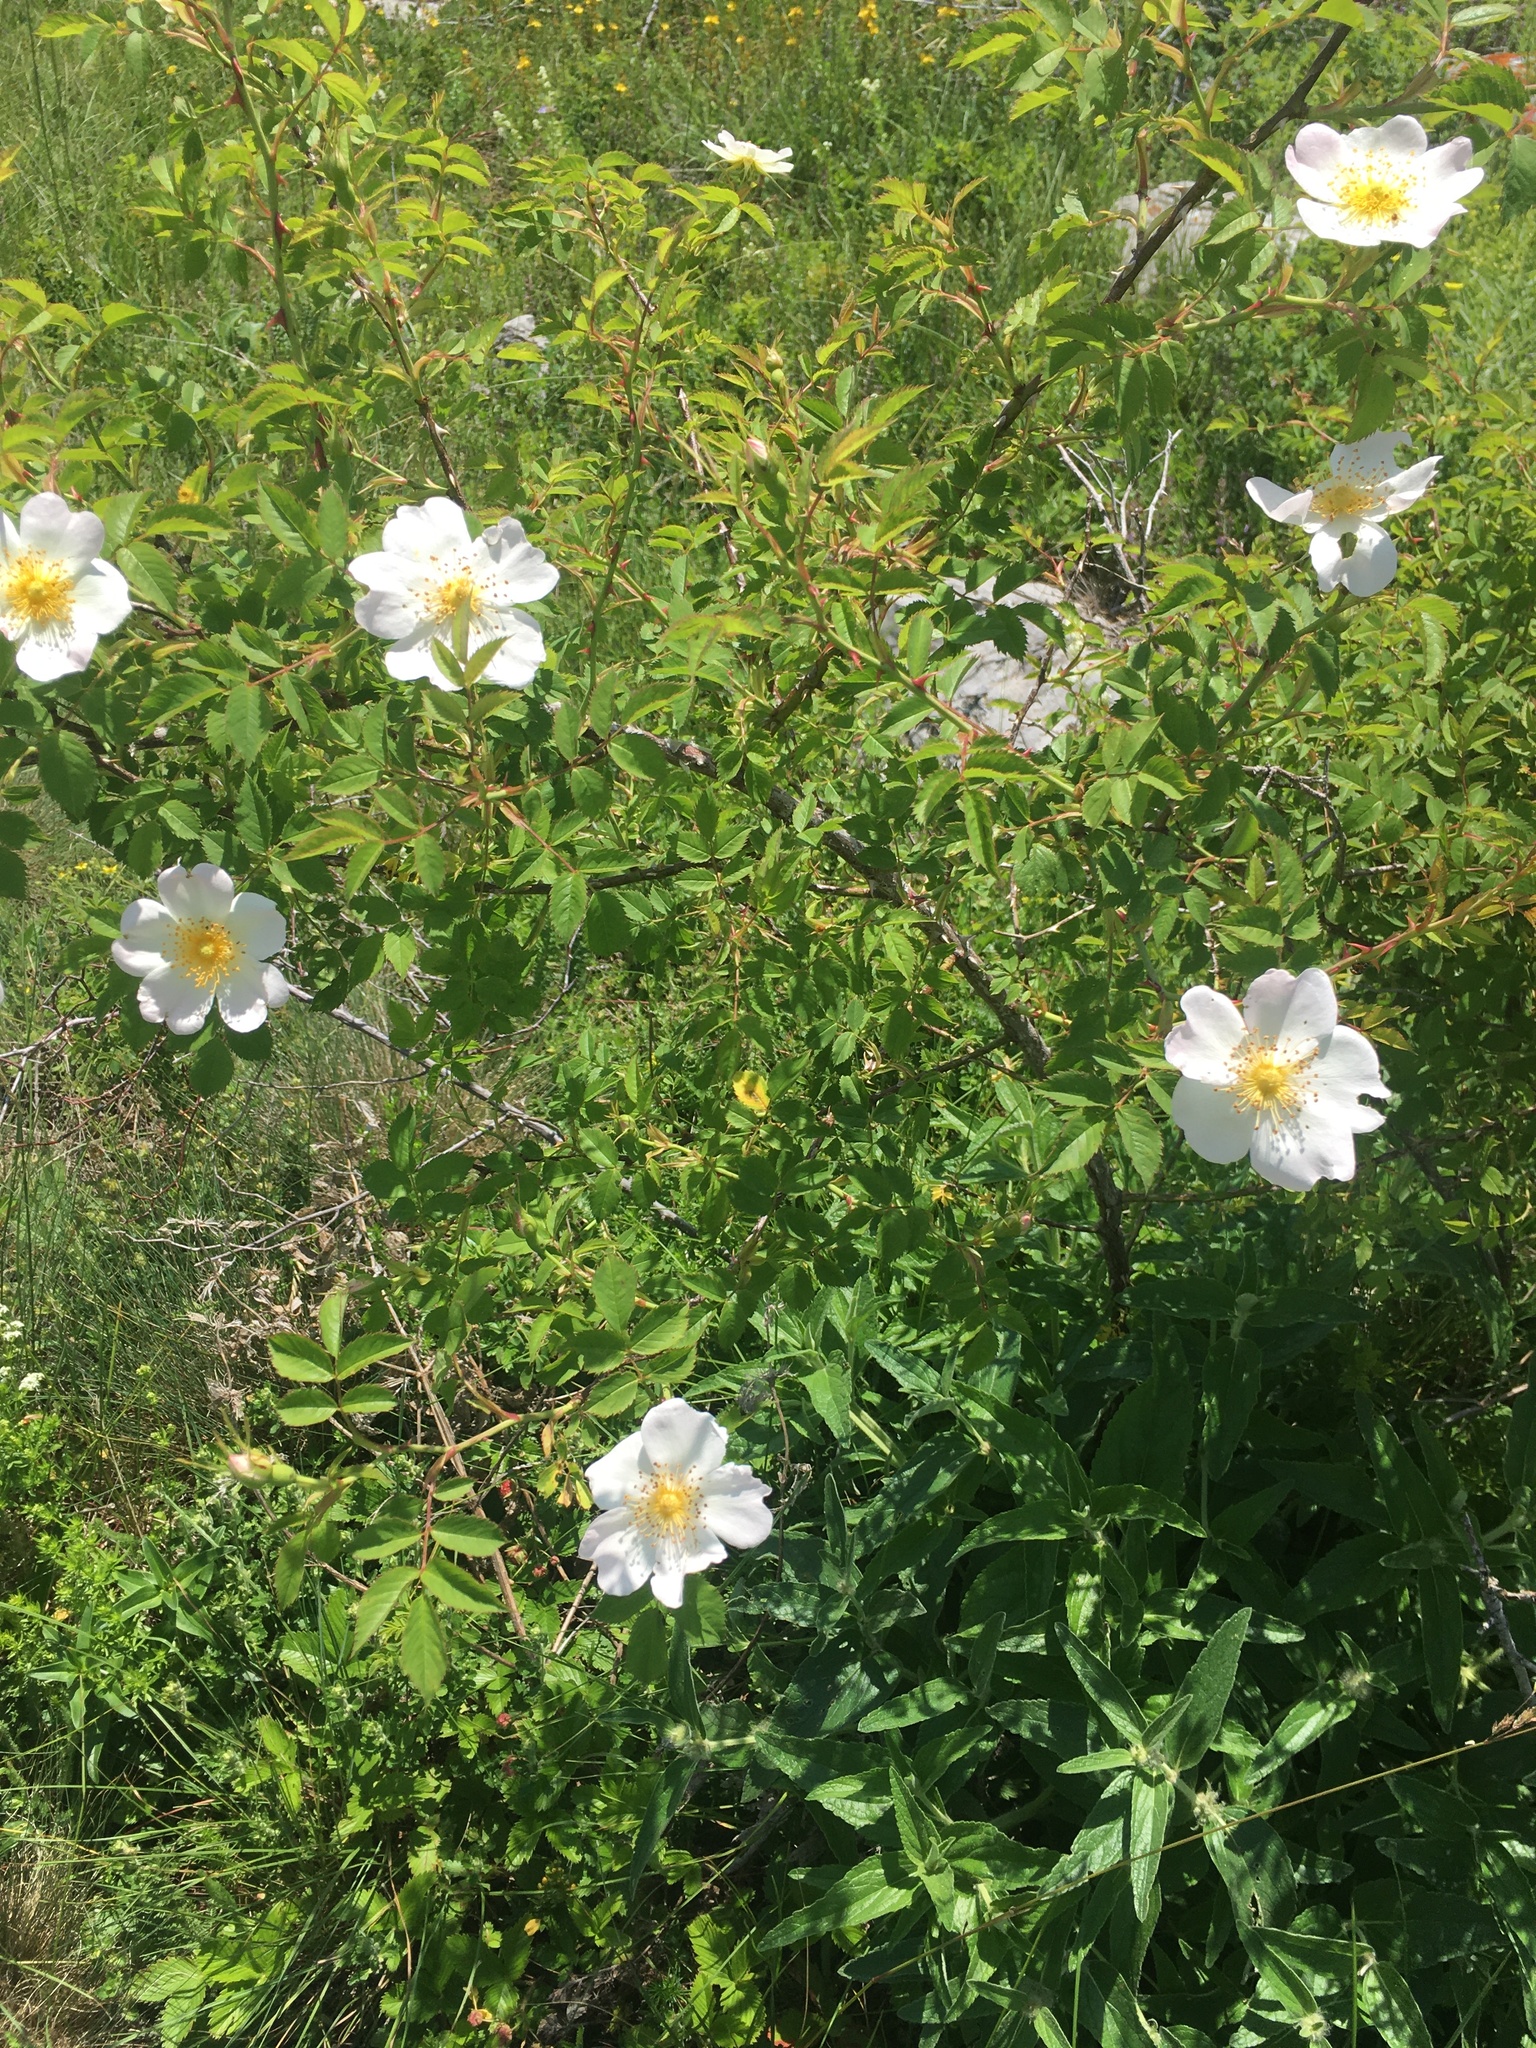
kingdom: Plantae
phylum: Tracheophyta
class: Magnoliopsida
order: Rosales
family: Rosaceae
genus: Rosa
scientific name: Rosa
